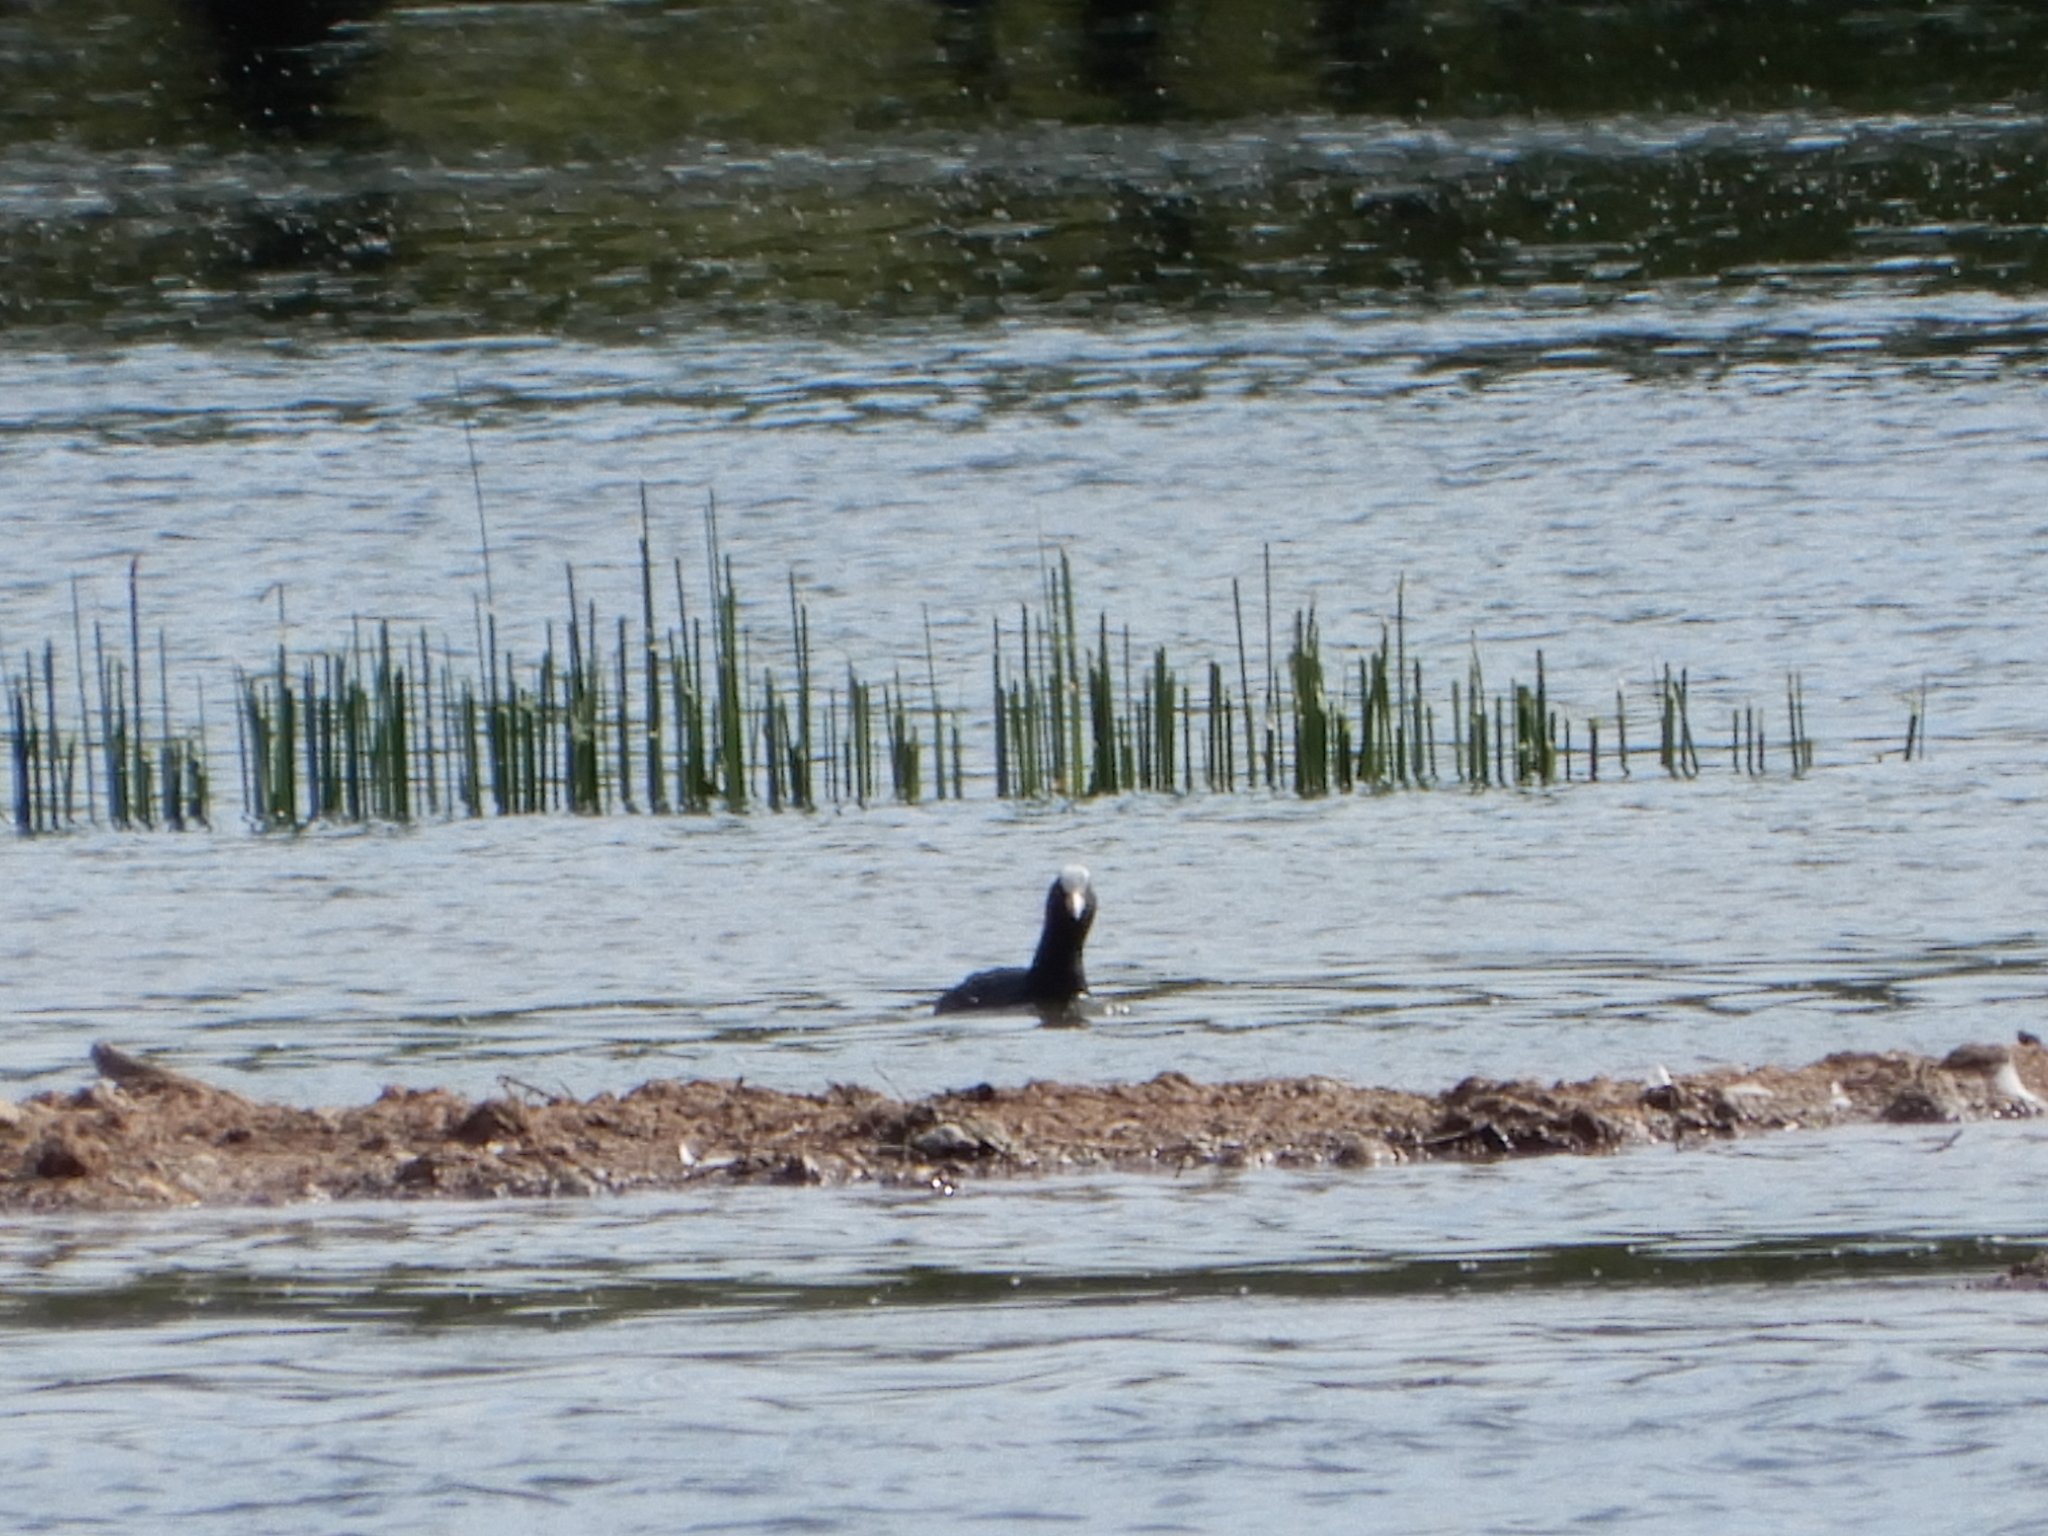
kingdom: Animalia
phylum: Chordata
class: Aves
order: Gruiformes
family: Rallidae
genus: Fulica
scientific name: Fulica atra
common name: Eurasian coot
